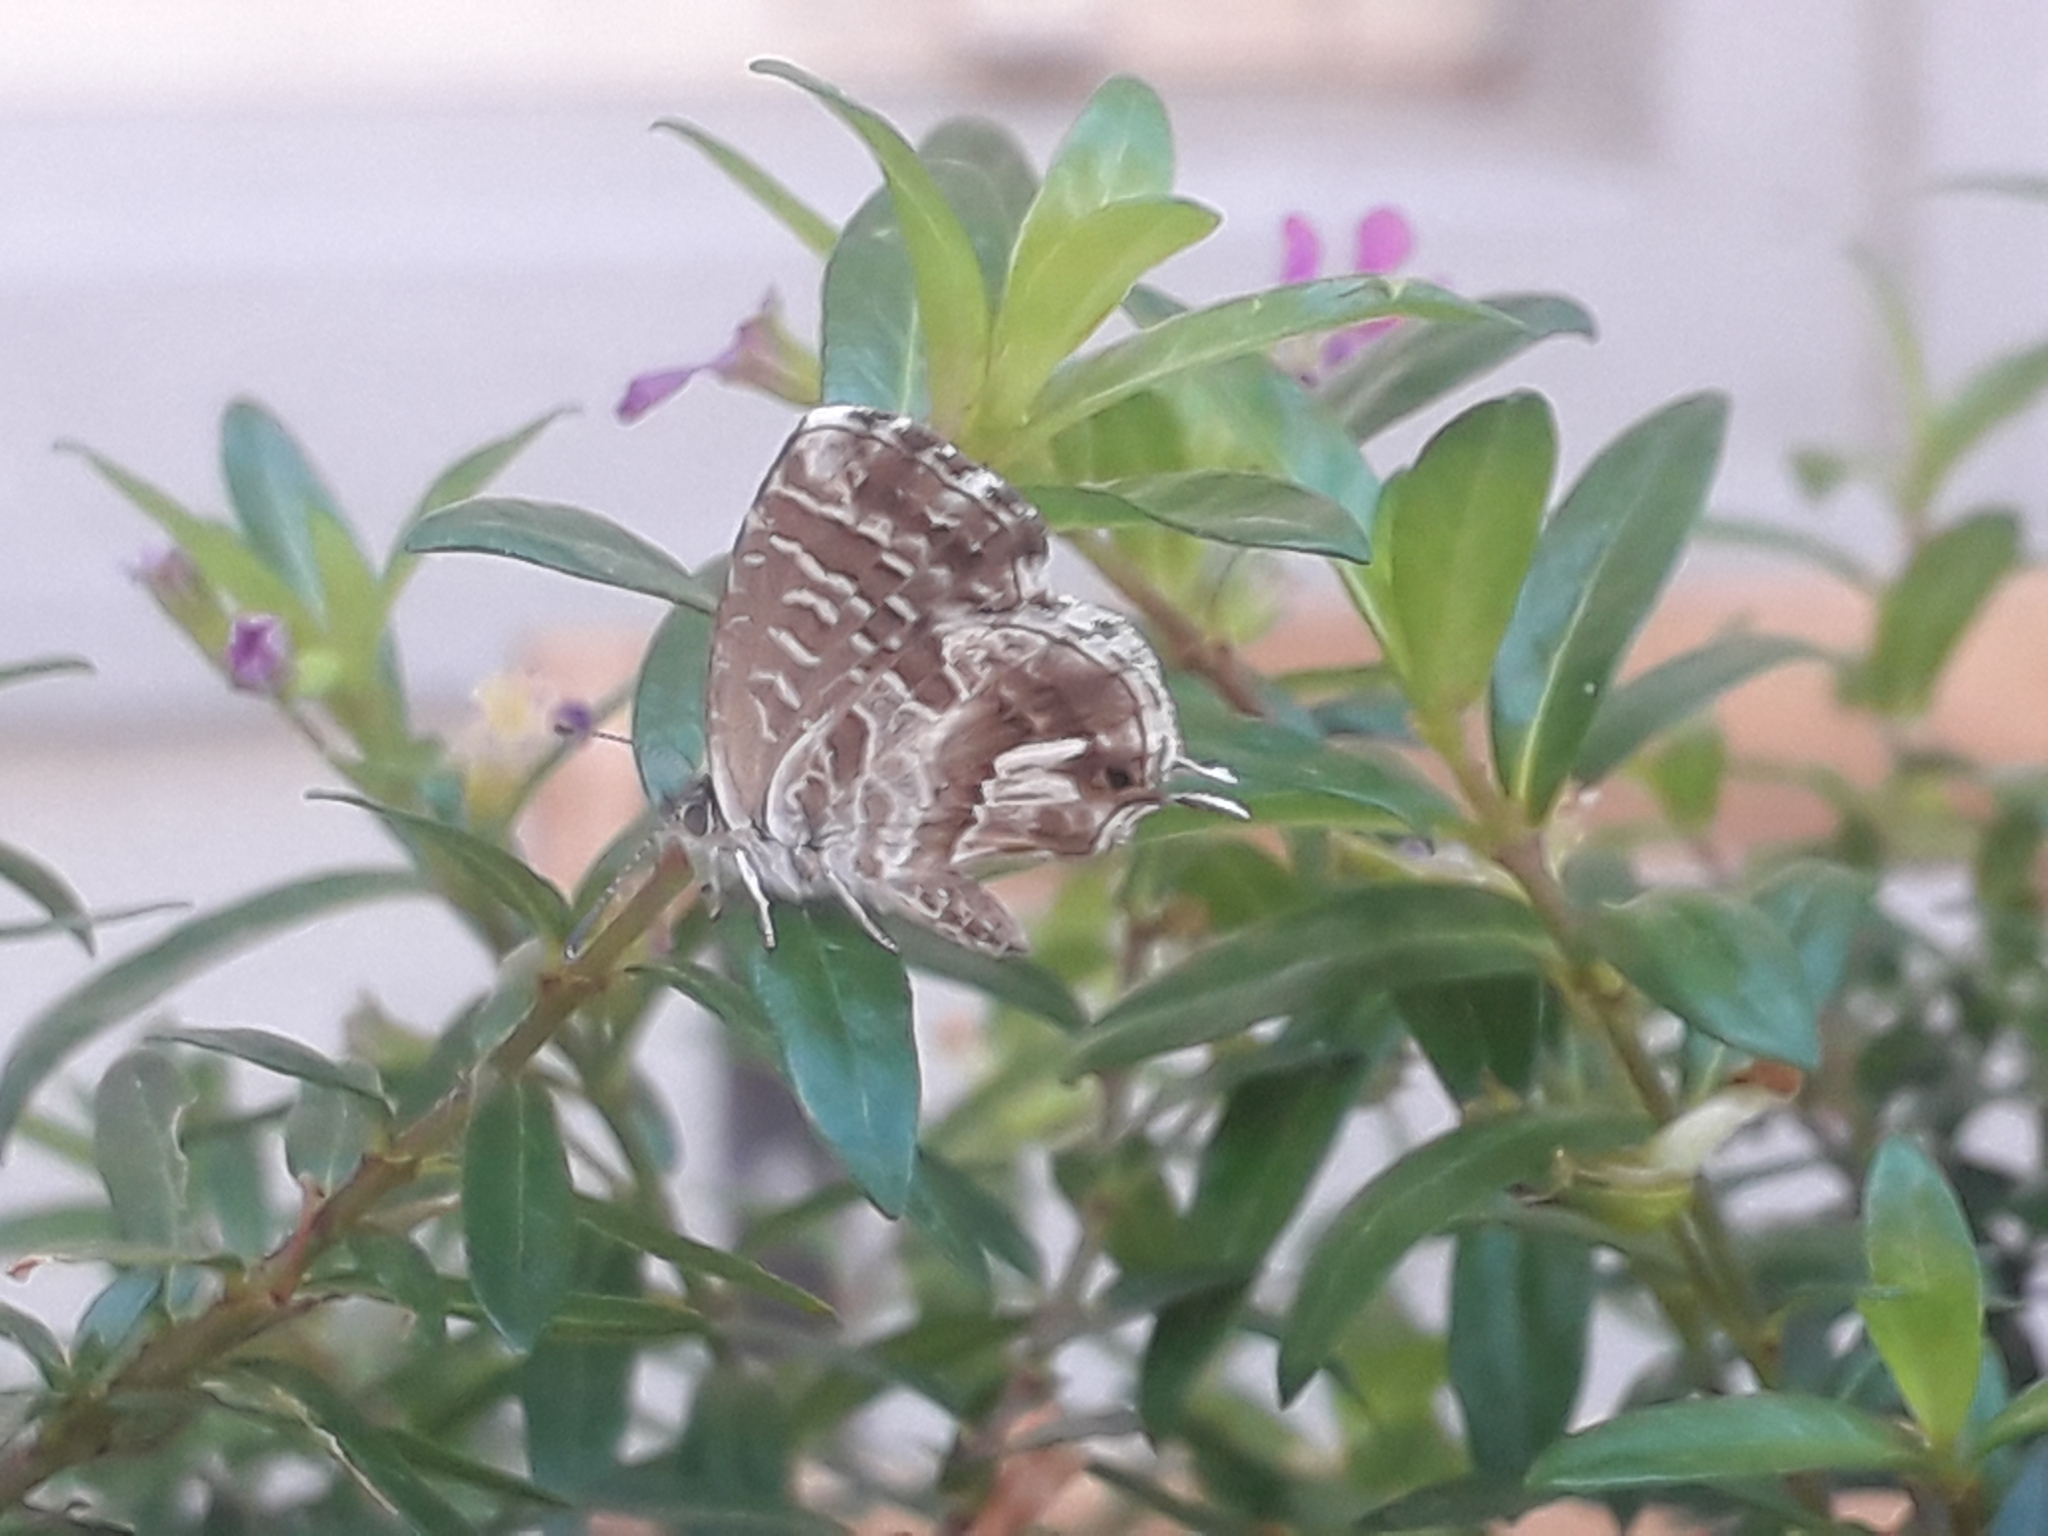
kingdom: Animalia
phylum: Arthropoda
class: Insecta
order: Lepidoptera
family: Lycaenidae
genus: Cacyreus
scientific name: Cacyreus marshalli
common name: Geranium bronze
